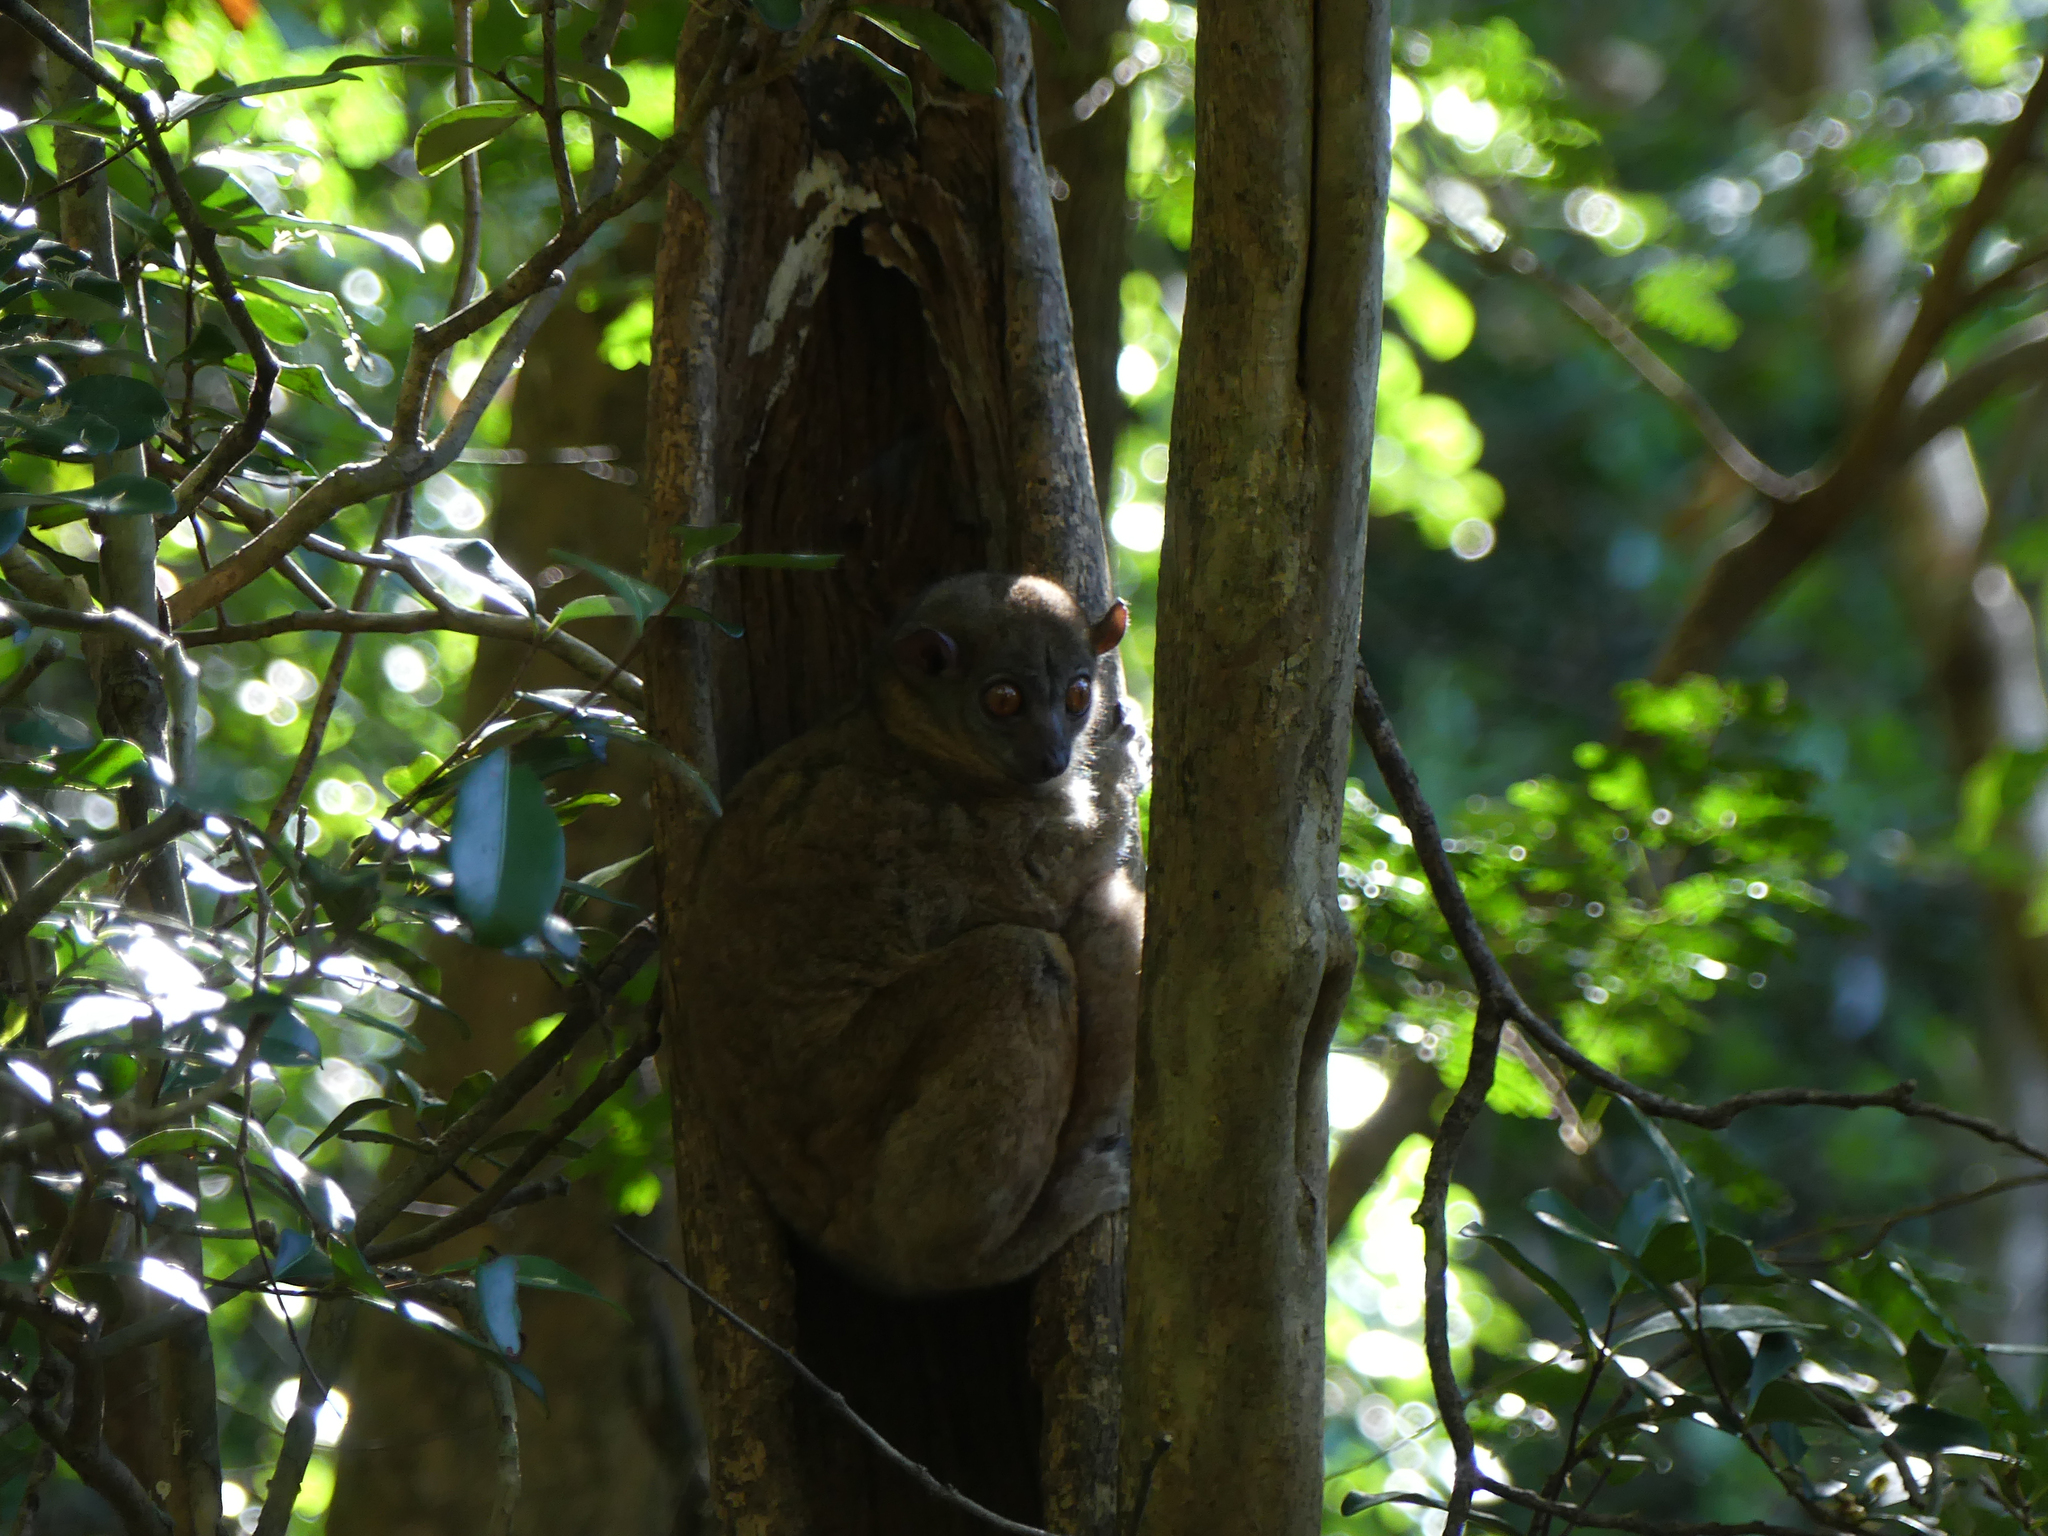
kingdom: Animalia
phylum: Chordata
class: Mammalia
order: Primates
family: Lepilemuridae
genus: Lepilemur
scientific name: Lepilemur ankaranensis
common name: Ankarana sportive lemur
